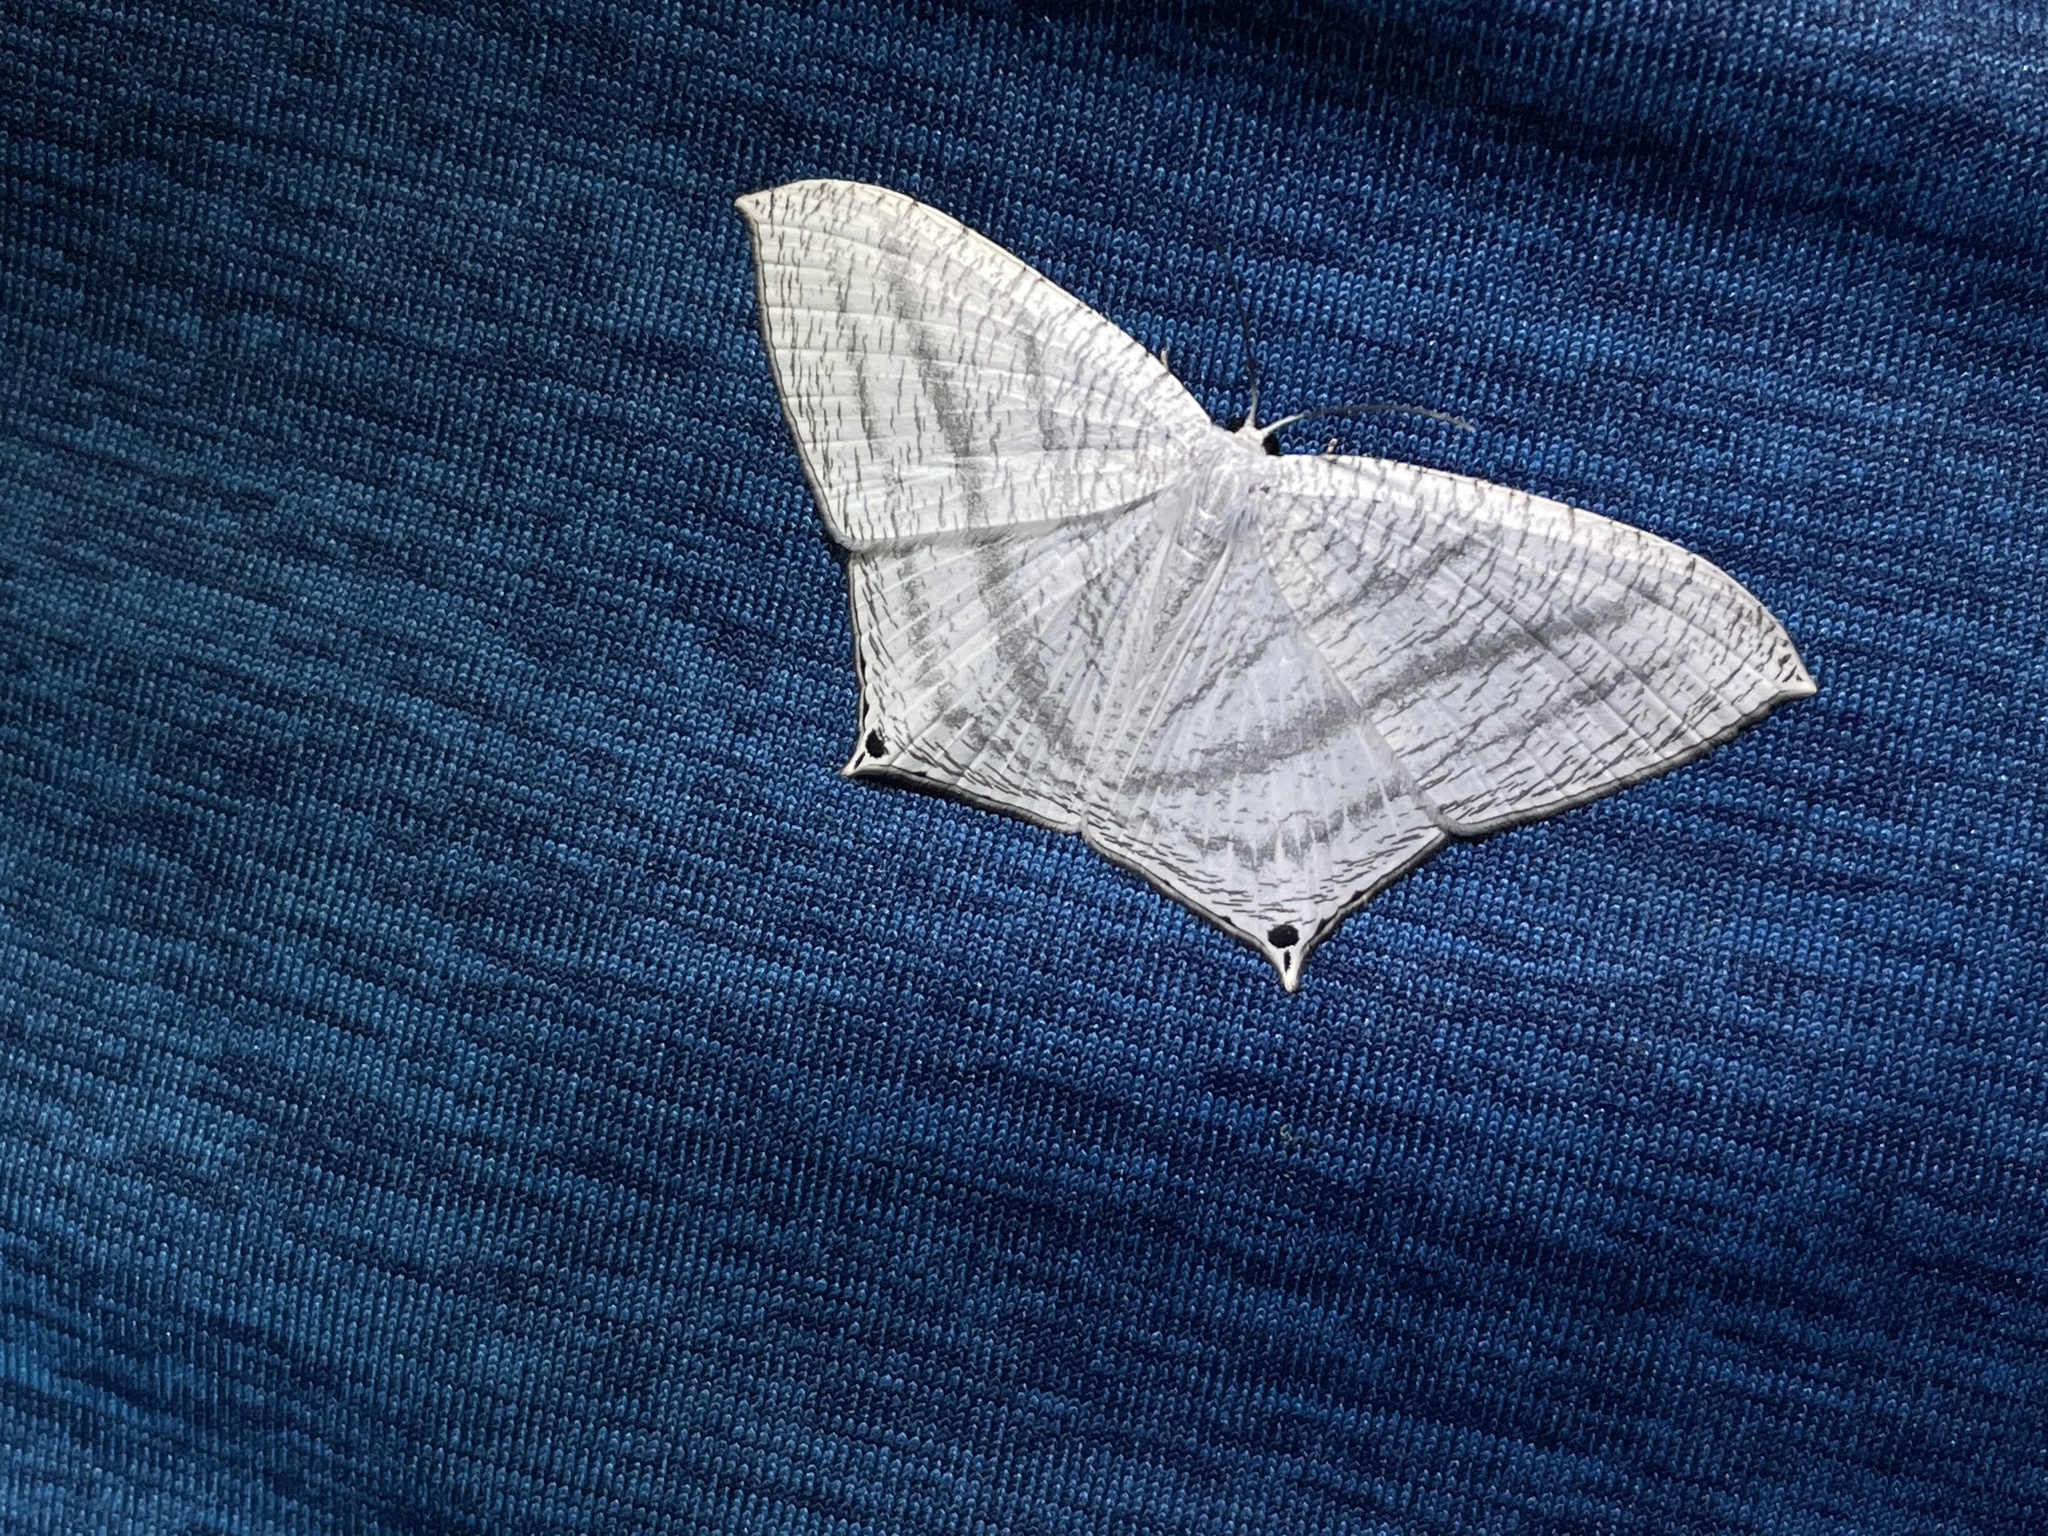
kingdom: Animalia
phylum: Arthropoda
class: Insecta
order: Lepidoptera
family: Uraniidae
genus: Micronia
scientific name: Micronia aculeata
